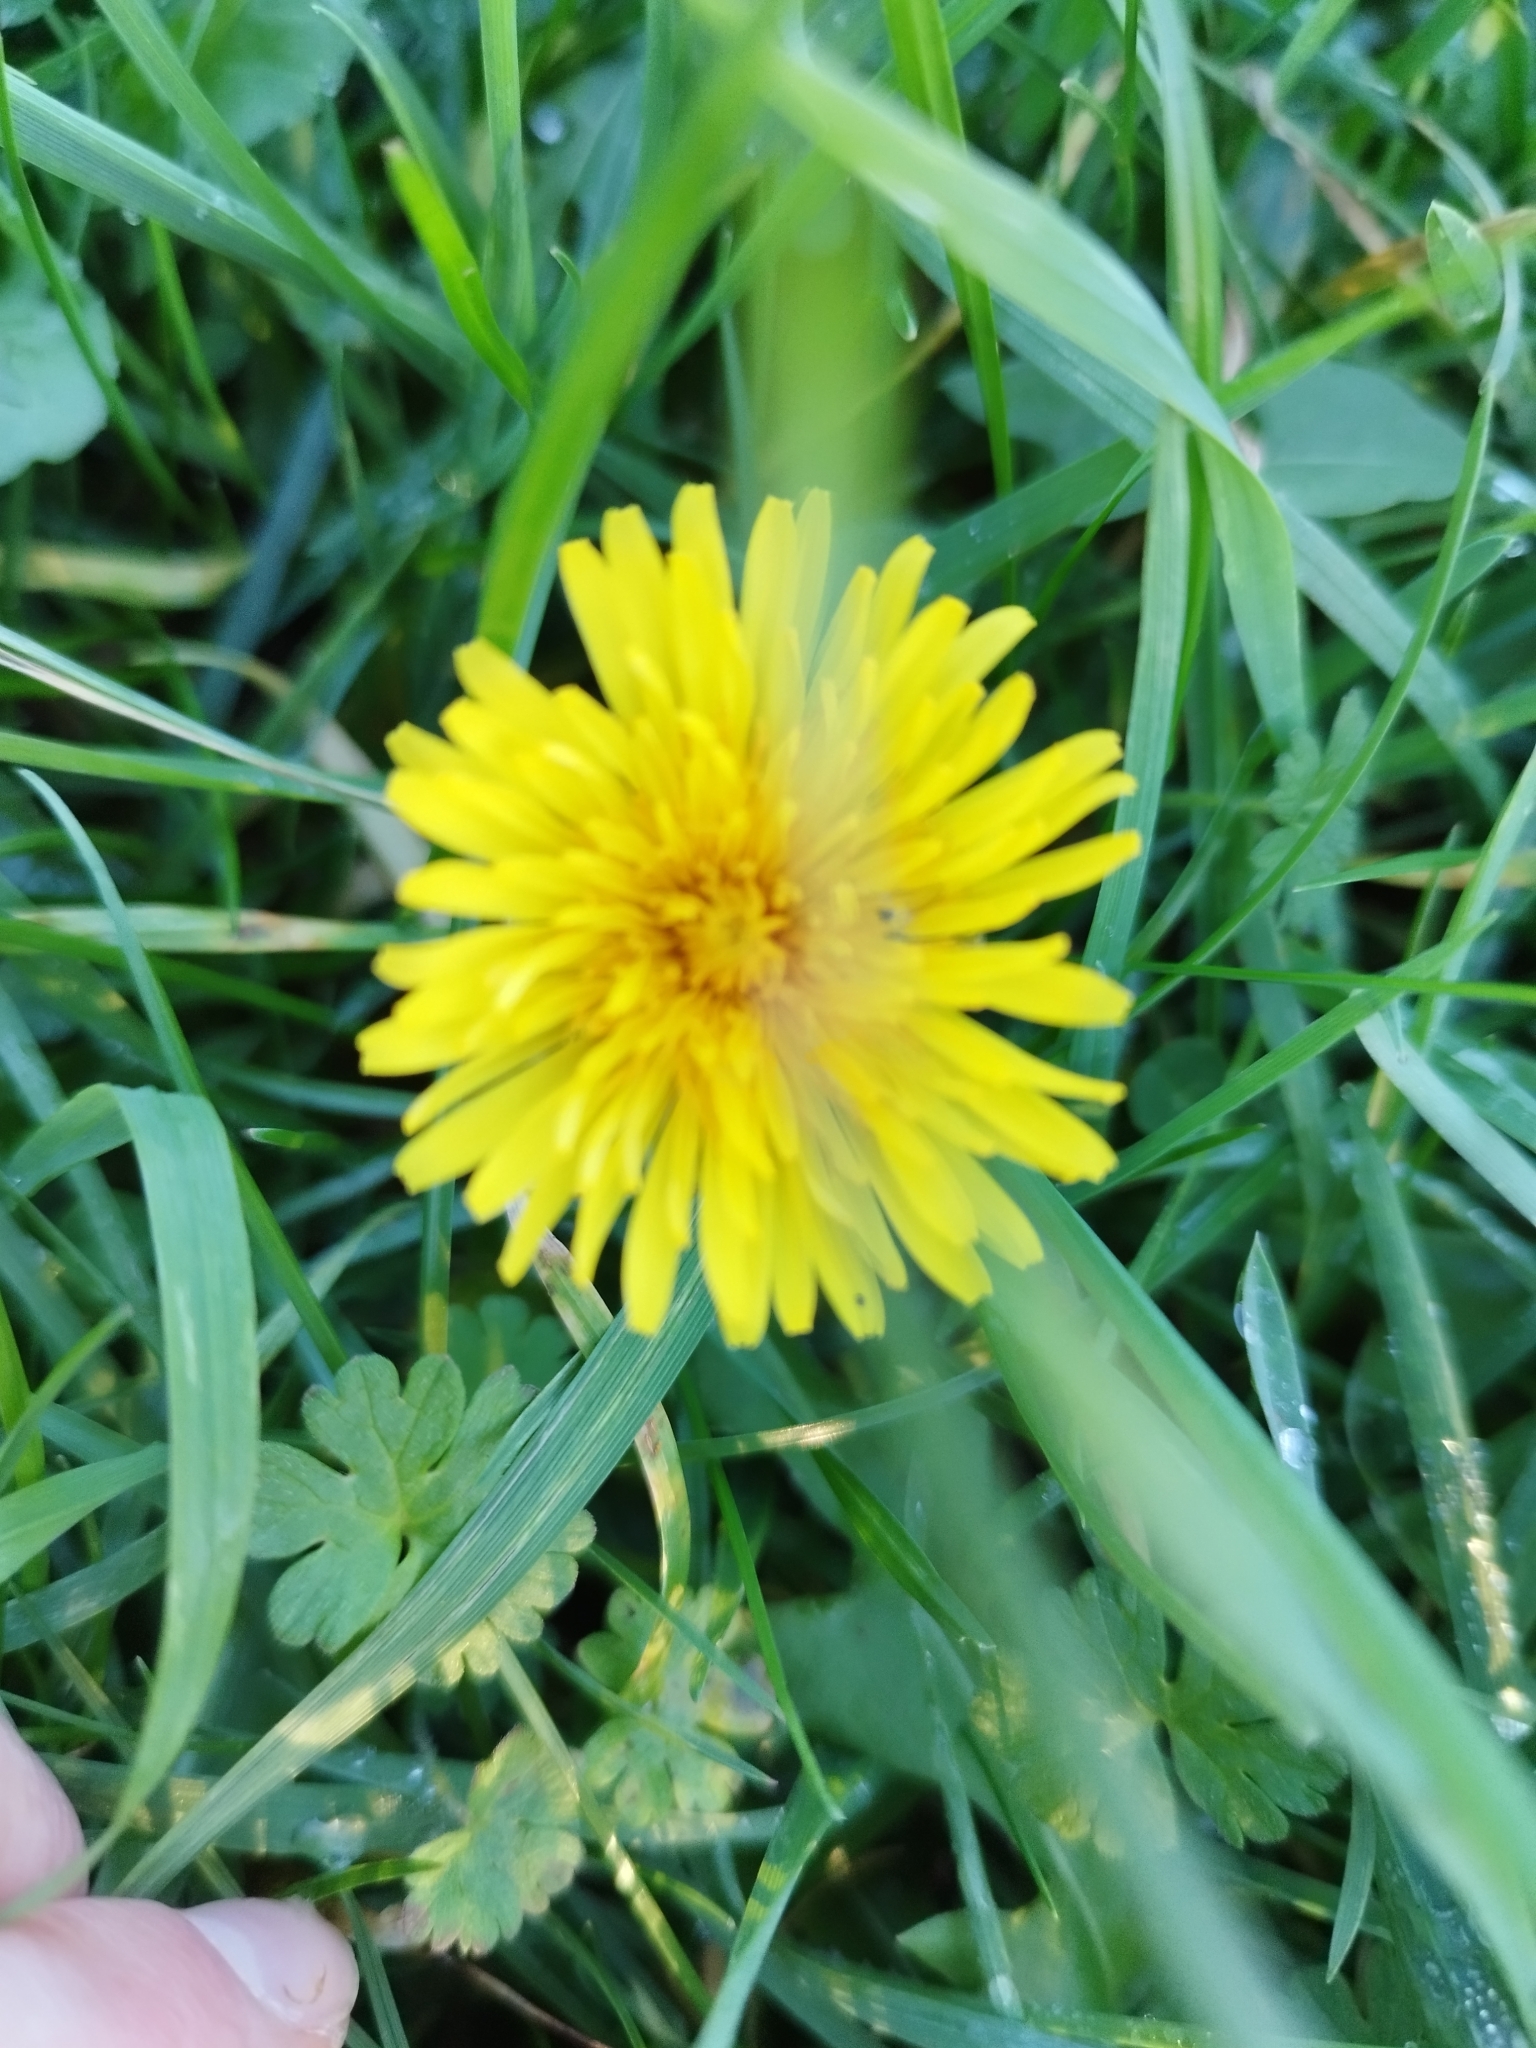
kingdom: Plantae
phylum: Tracheophyta
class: Magnoliopsida
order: Asterales
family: Asteraceae
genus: Taraxacum
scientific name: Taraxacum officinale
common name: Common dandelion
